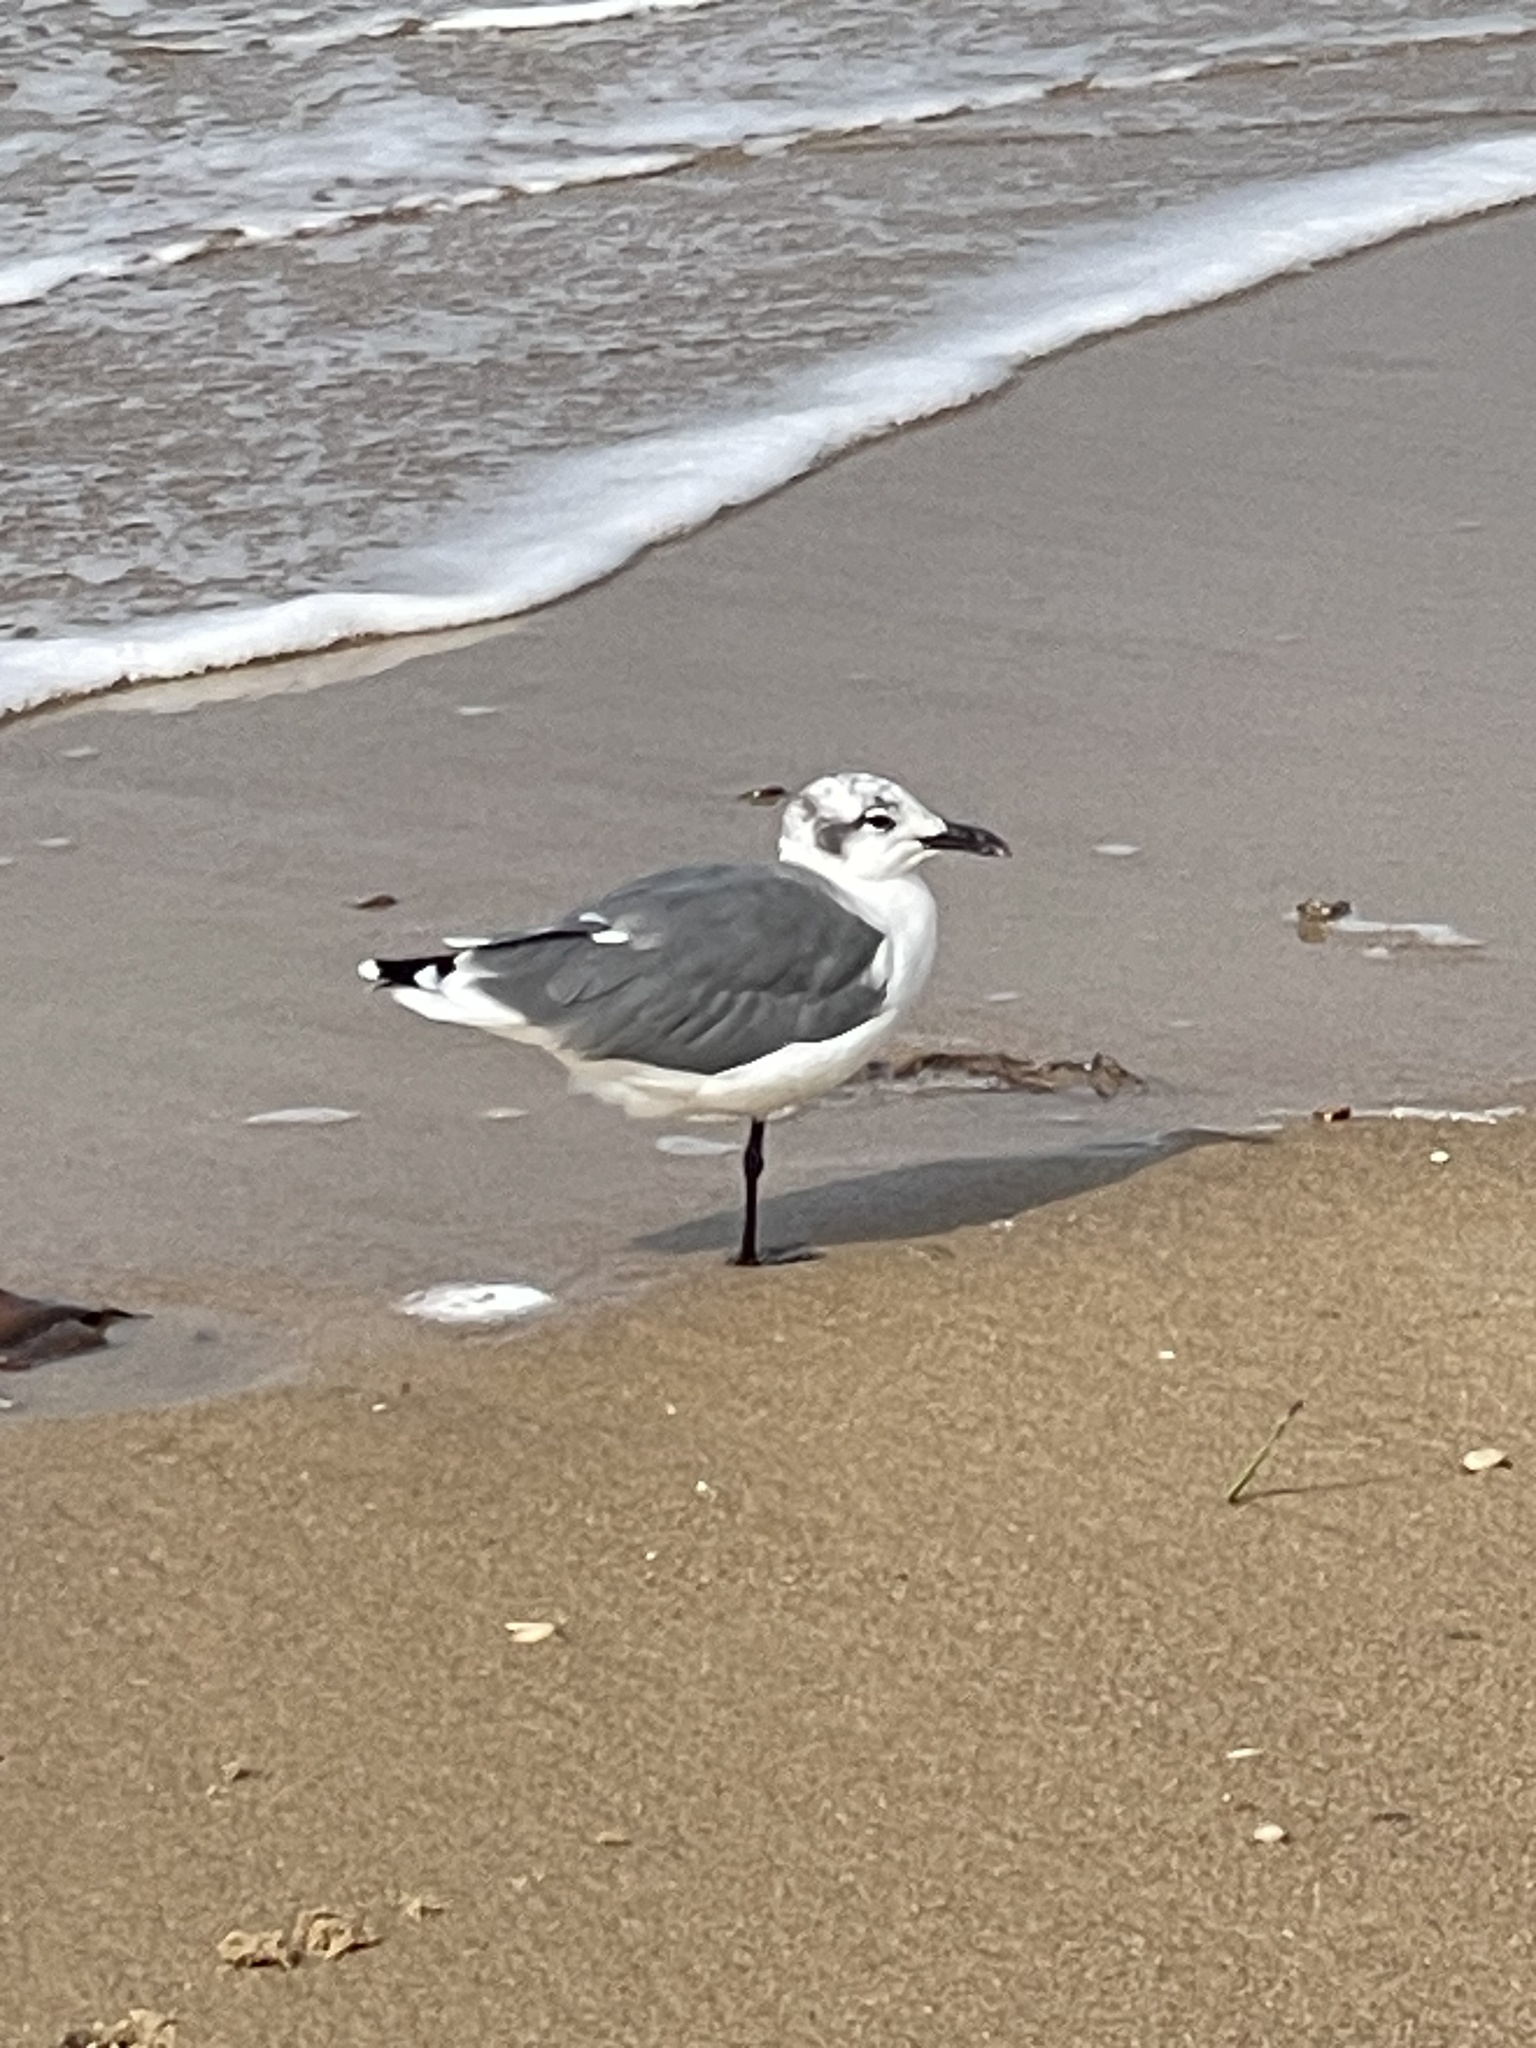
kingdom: Animalia
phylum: Chordata
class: Aves
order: Charadriiformes
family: Laridae
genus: Leucophaeus
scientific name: Leucophaeus atricilla
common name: Laughing gull
